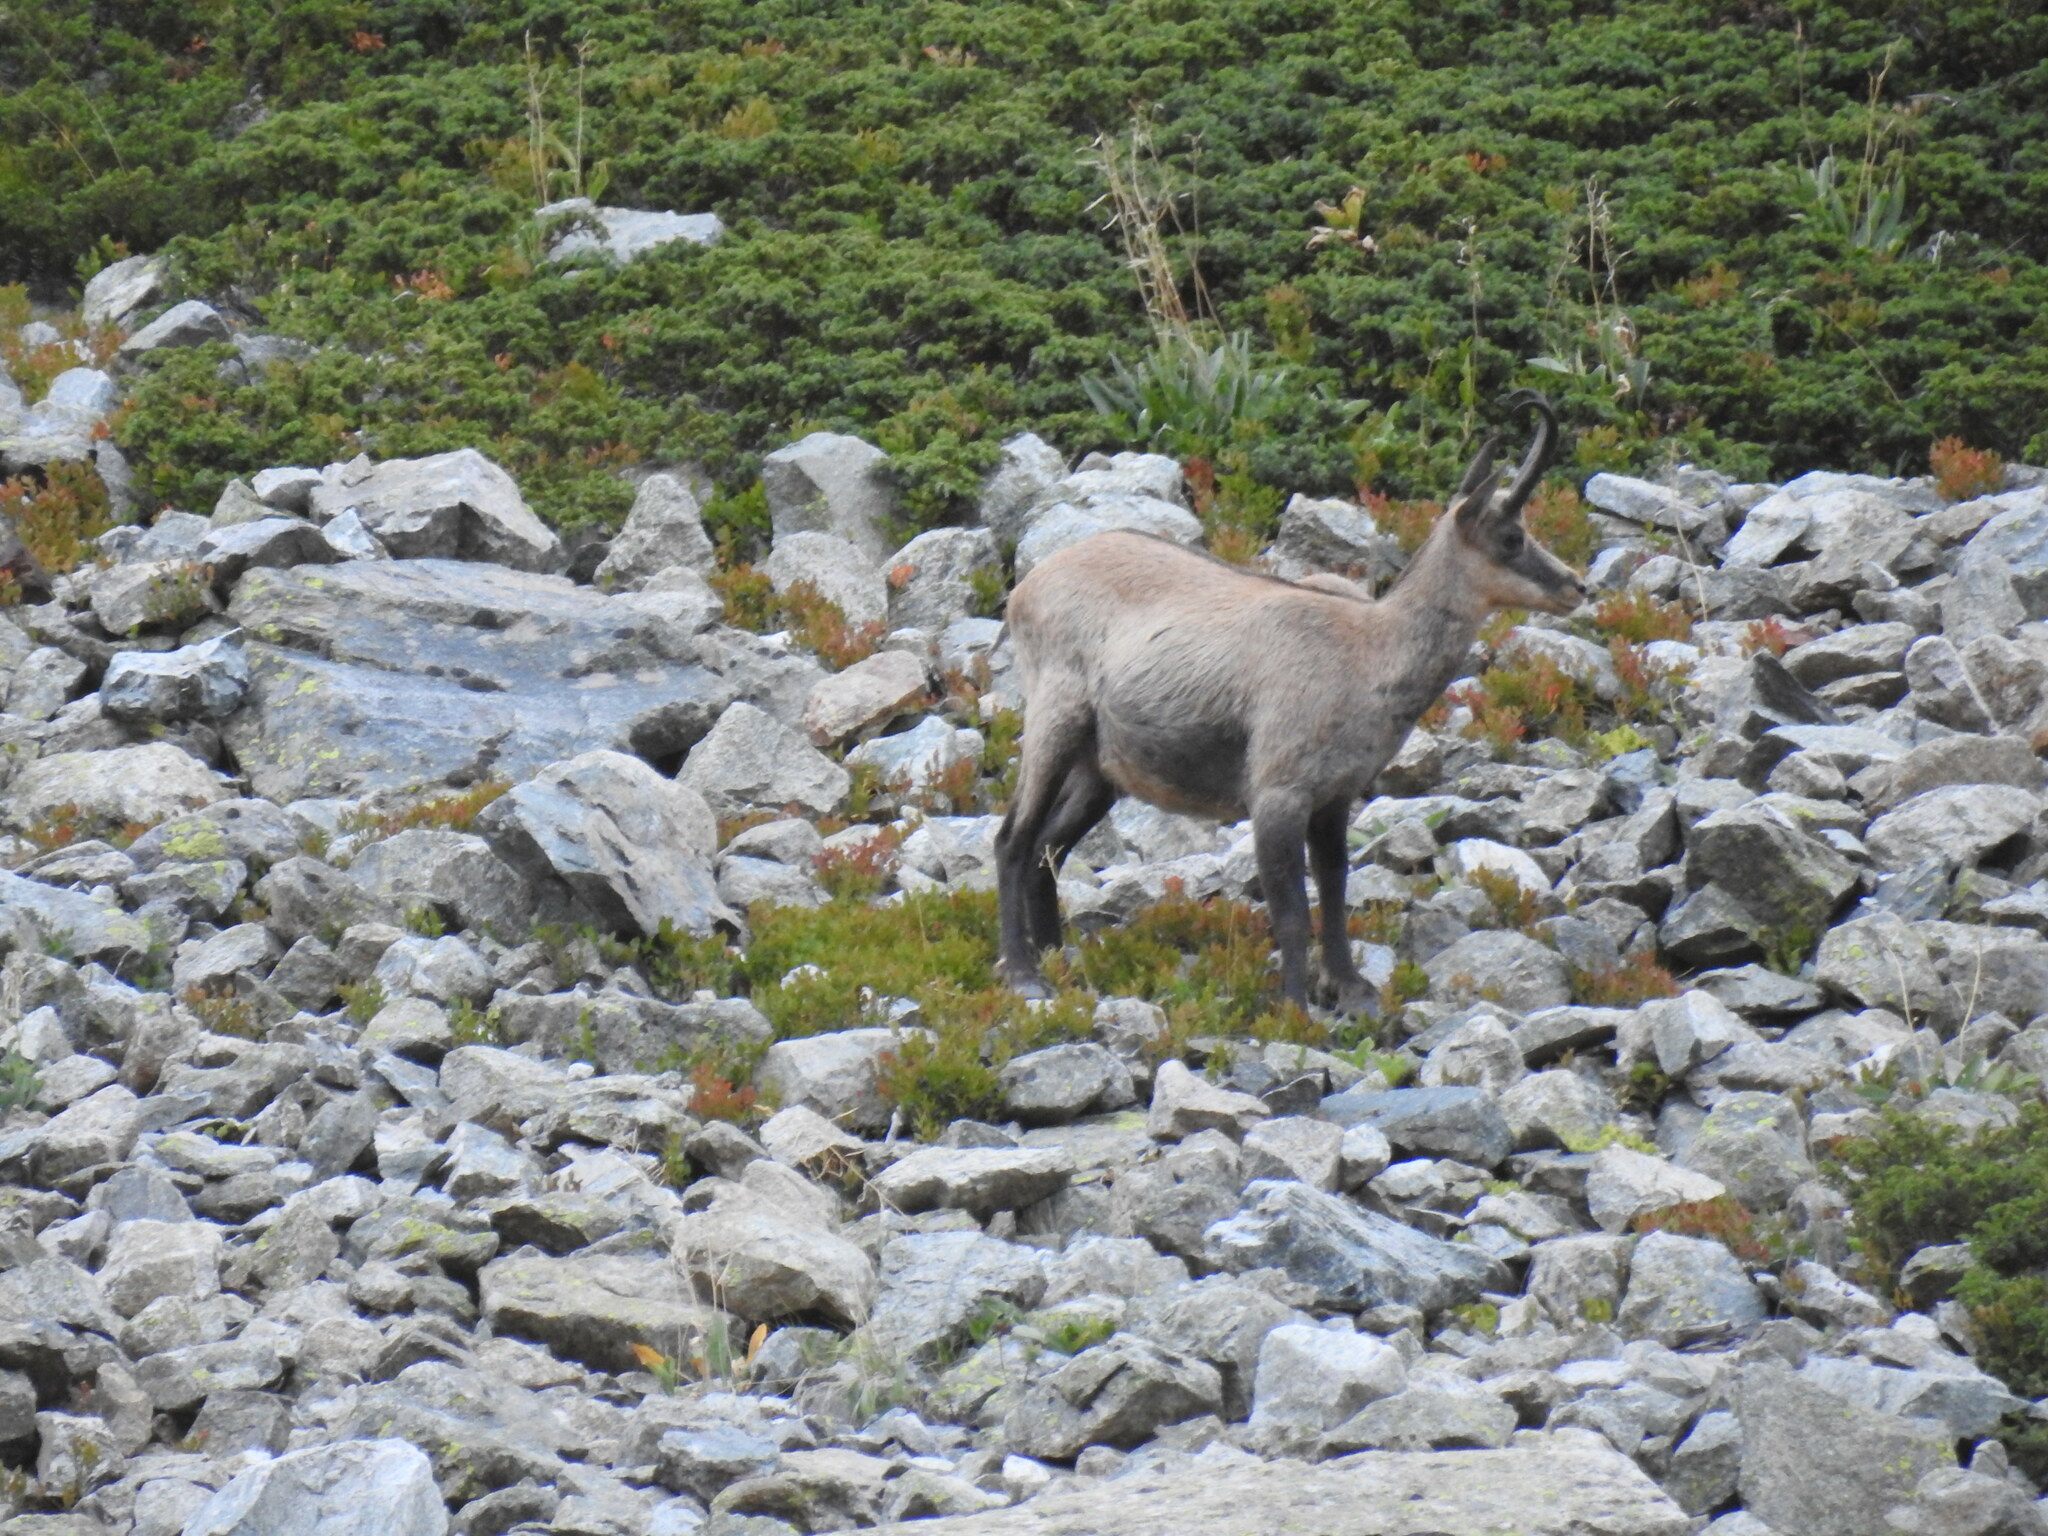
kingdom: Animalia
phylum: Chordata
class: Mammalia
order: Artiodactyla
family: Bovidae
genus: Rupicapra
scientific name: Rupicapra rupicapra
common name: Chamois
